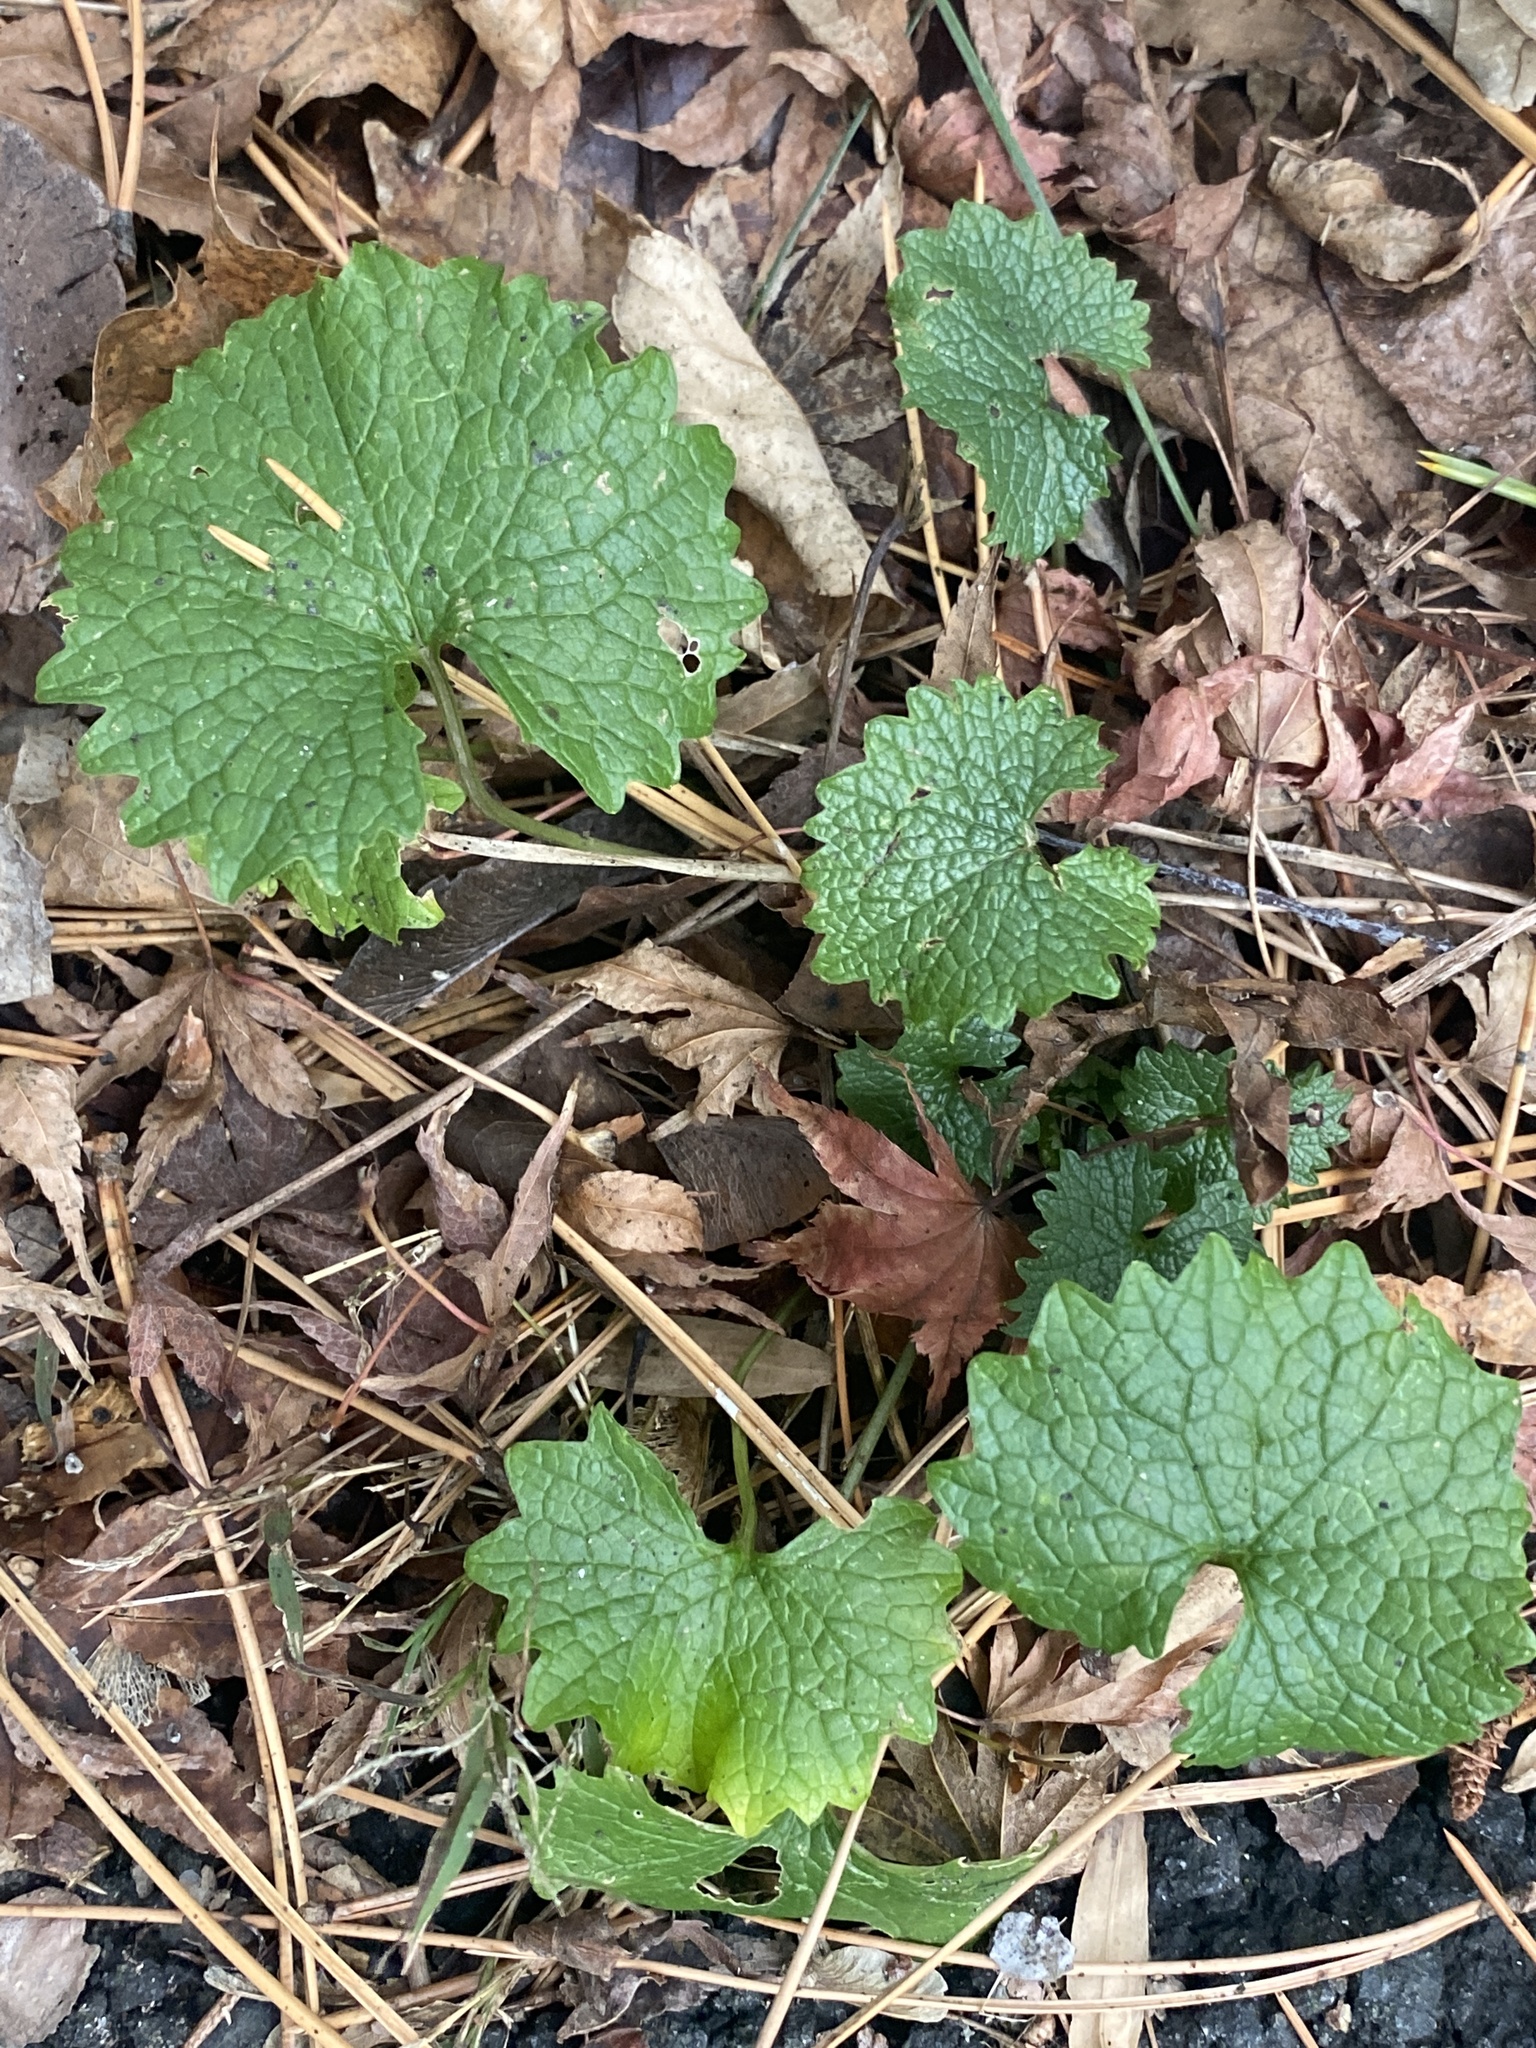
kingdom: Plantae
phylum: Tracheophyta
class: Magnoliopsida
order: Brassicales
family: Brassicaceae
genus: Alliaria
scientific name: Alliaria petiolata
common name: Garlic mustard
